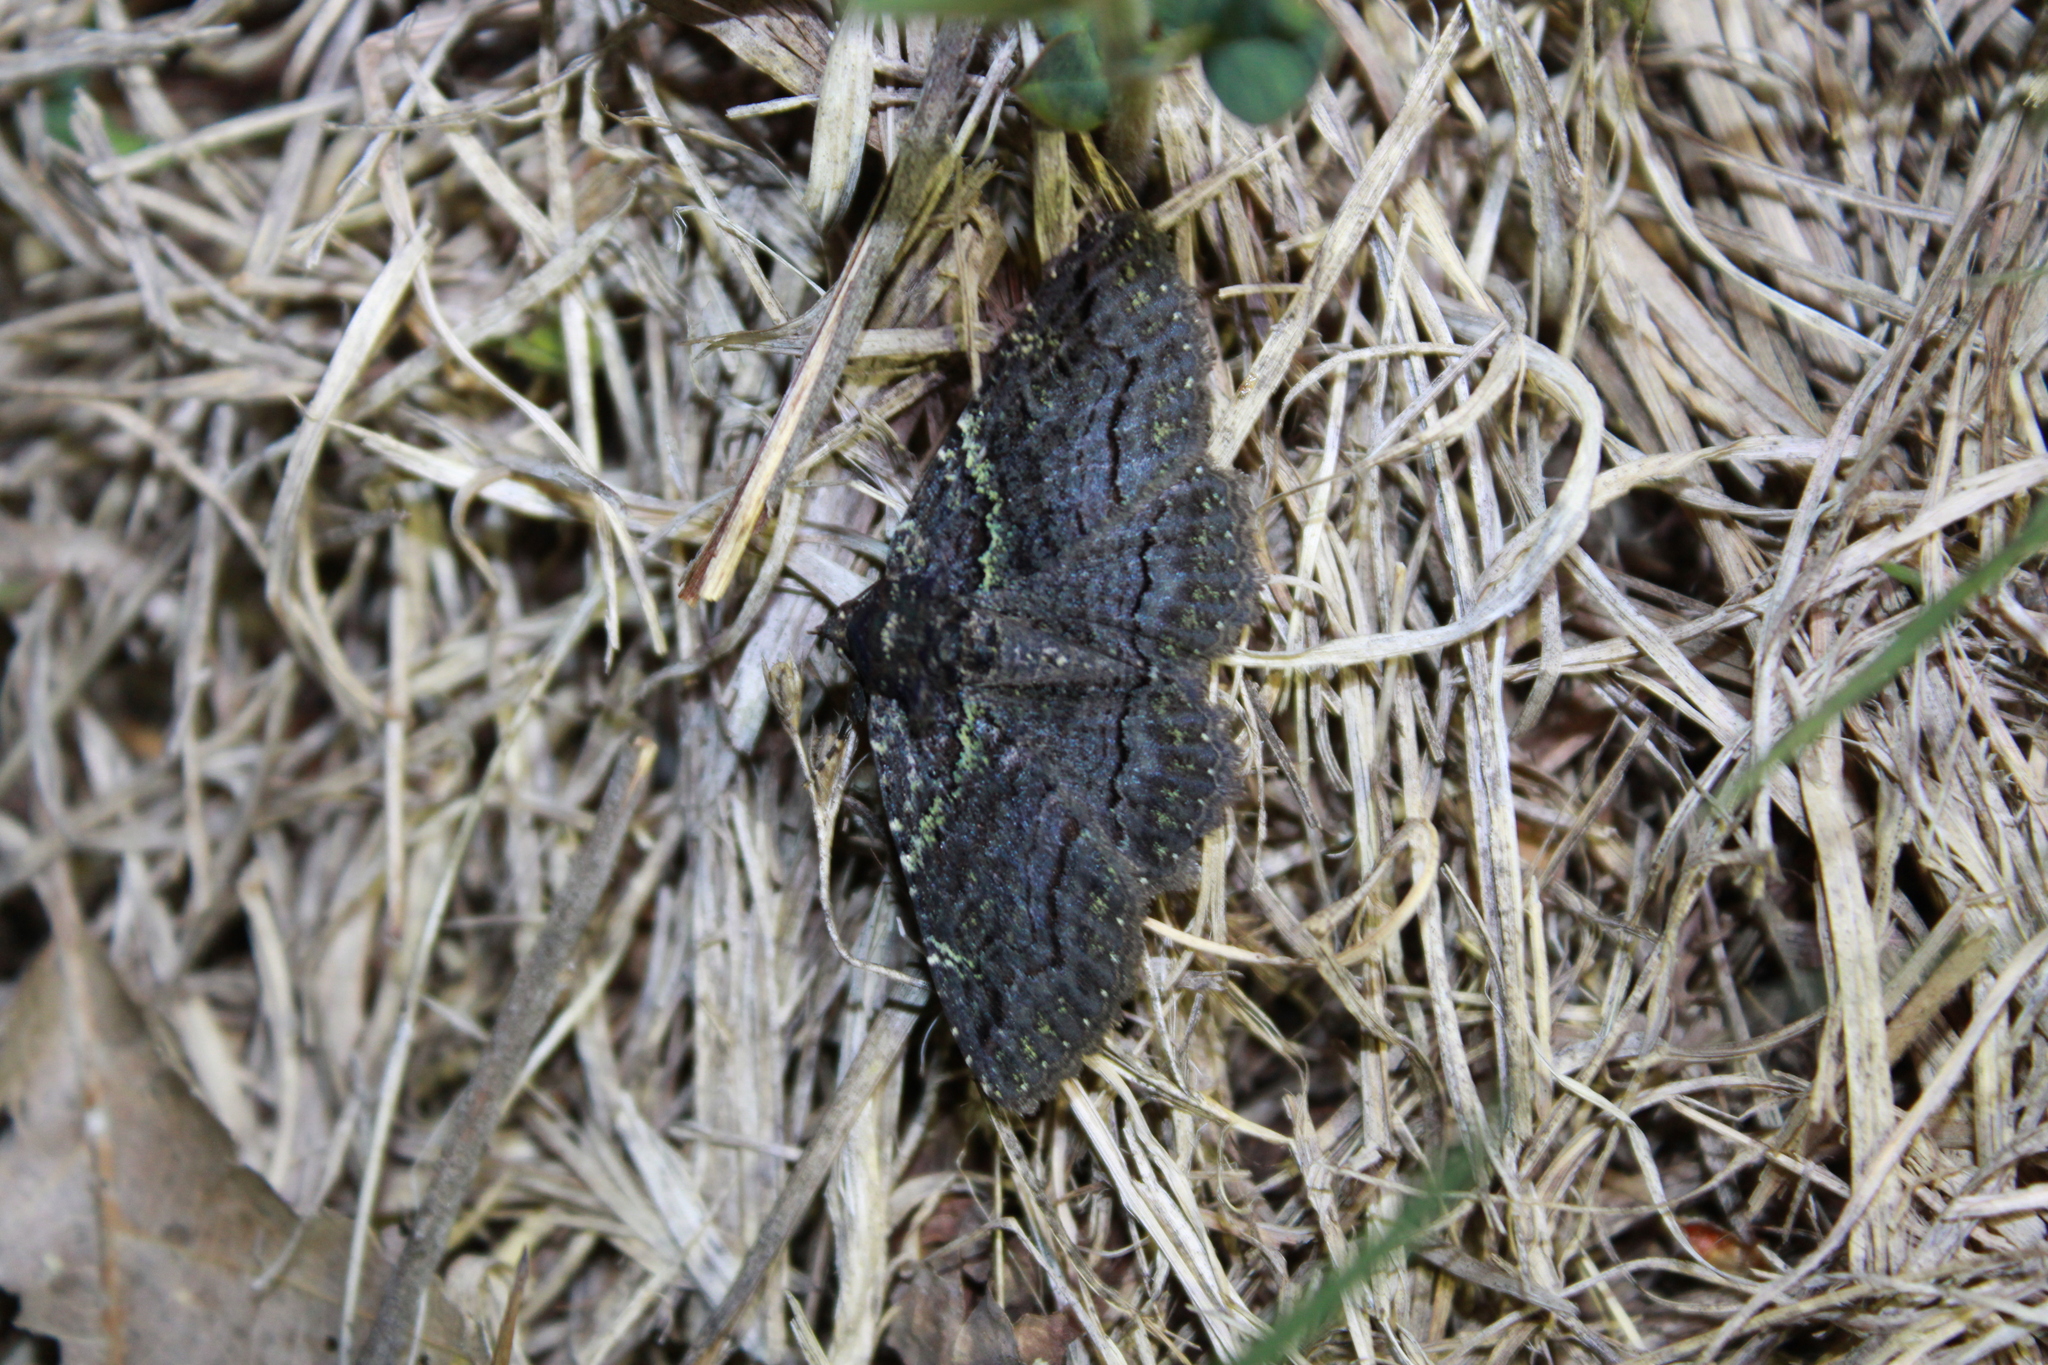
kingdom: Animalia
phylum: Arthropoda
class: Insecta
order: Lepidoptera
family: Erebidae
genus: Zale
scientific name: Zale aeruginosa
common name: Green-dusted zale moth
